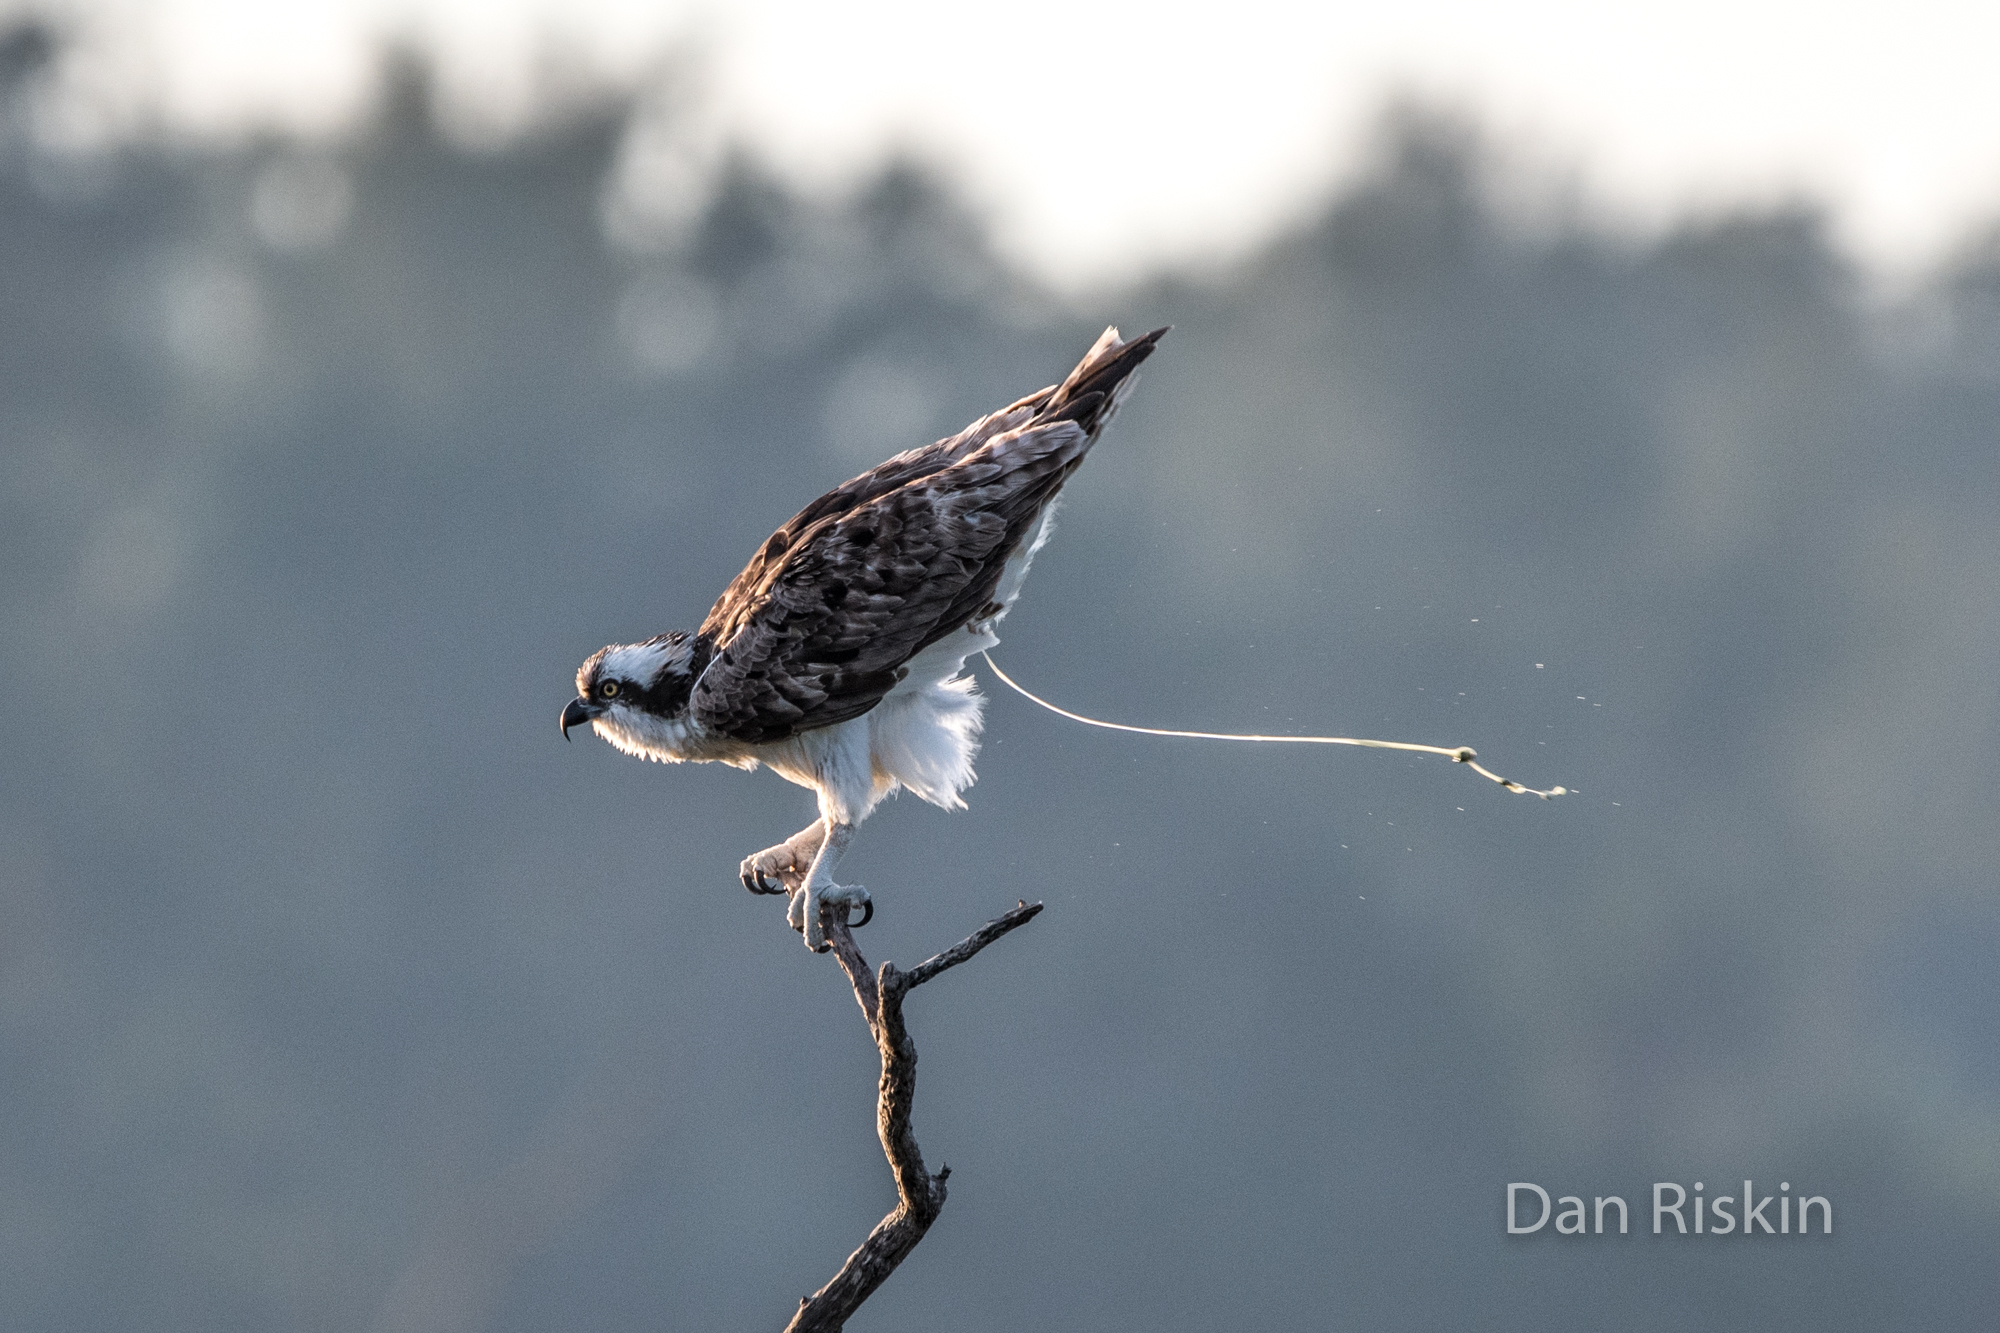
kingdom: Animalia
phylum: Chordata
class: Aves
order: Accipitriformes
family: Pandionidae
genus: Pandion
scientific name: Pandion haliaetus
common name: Osprey
